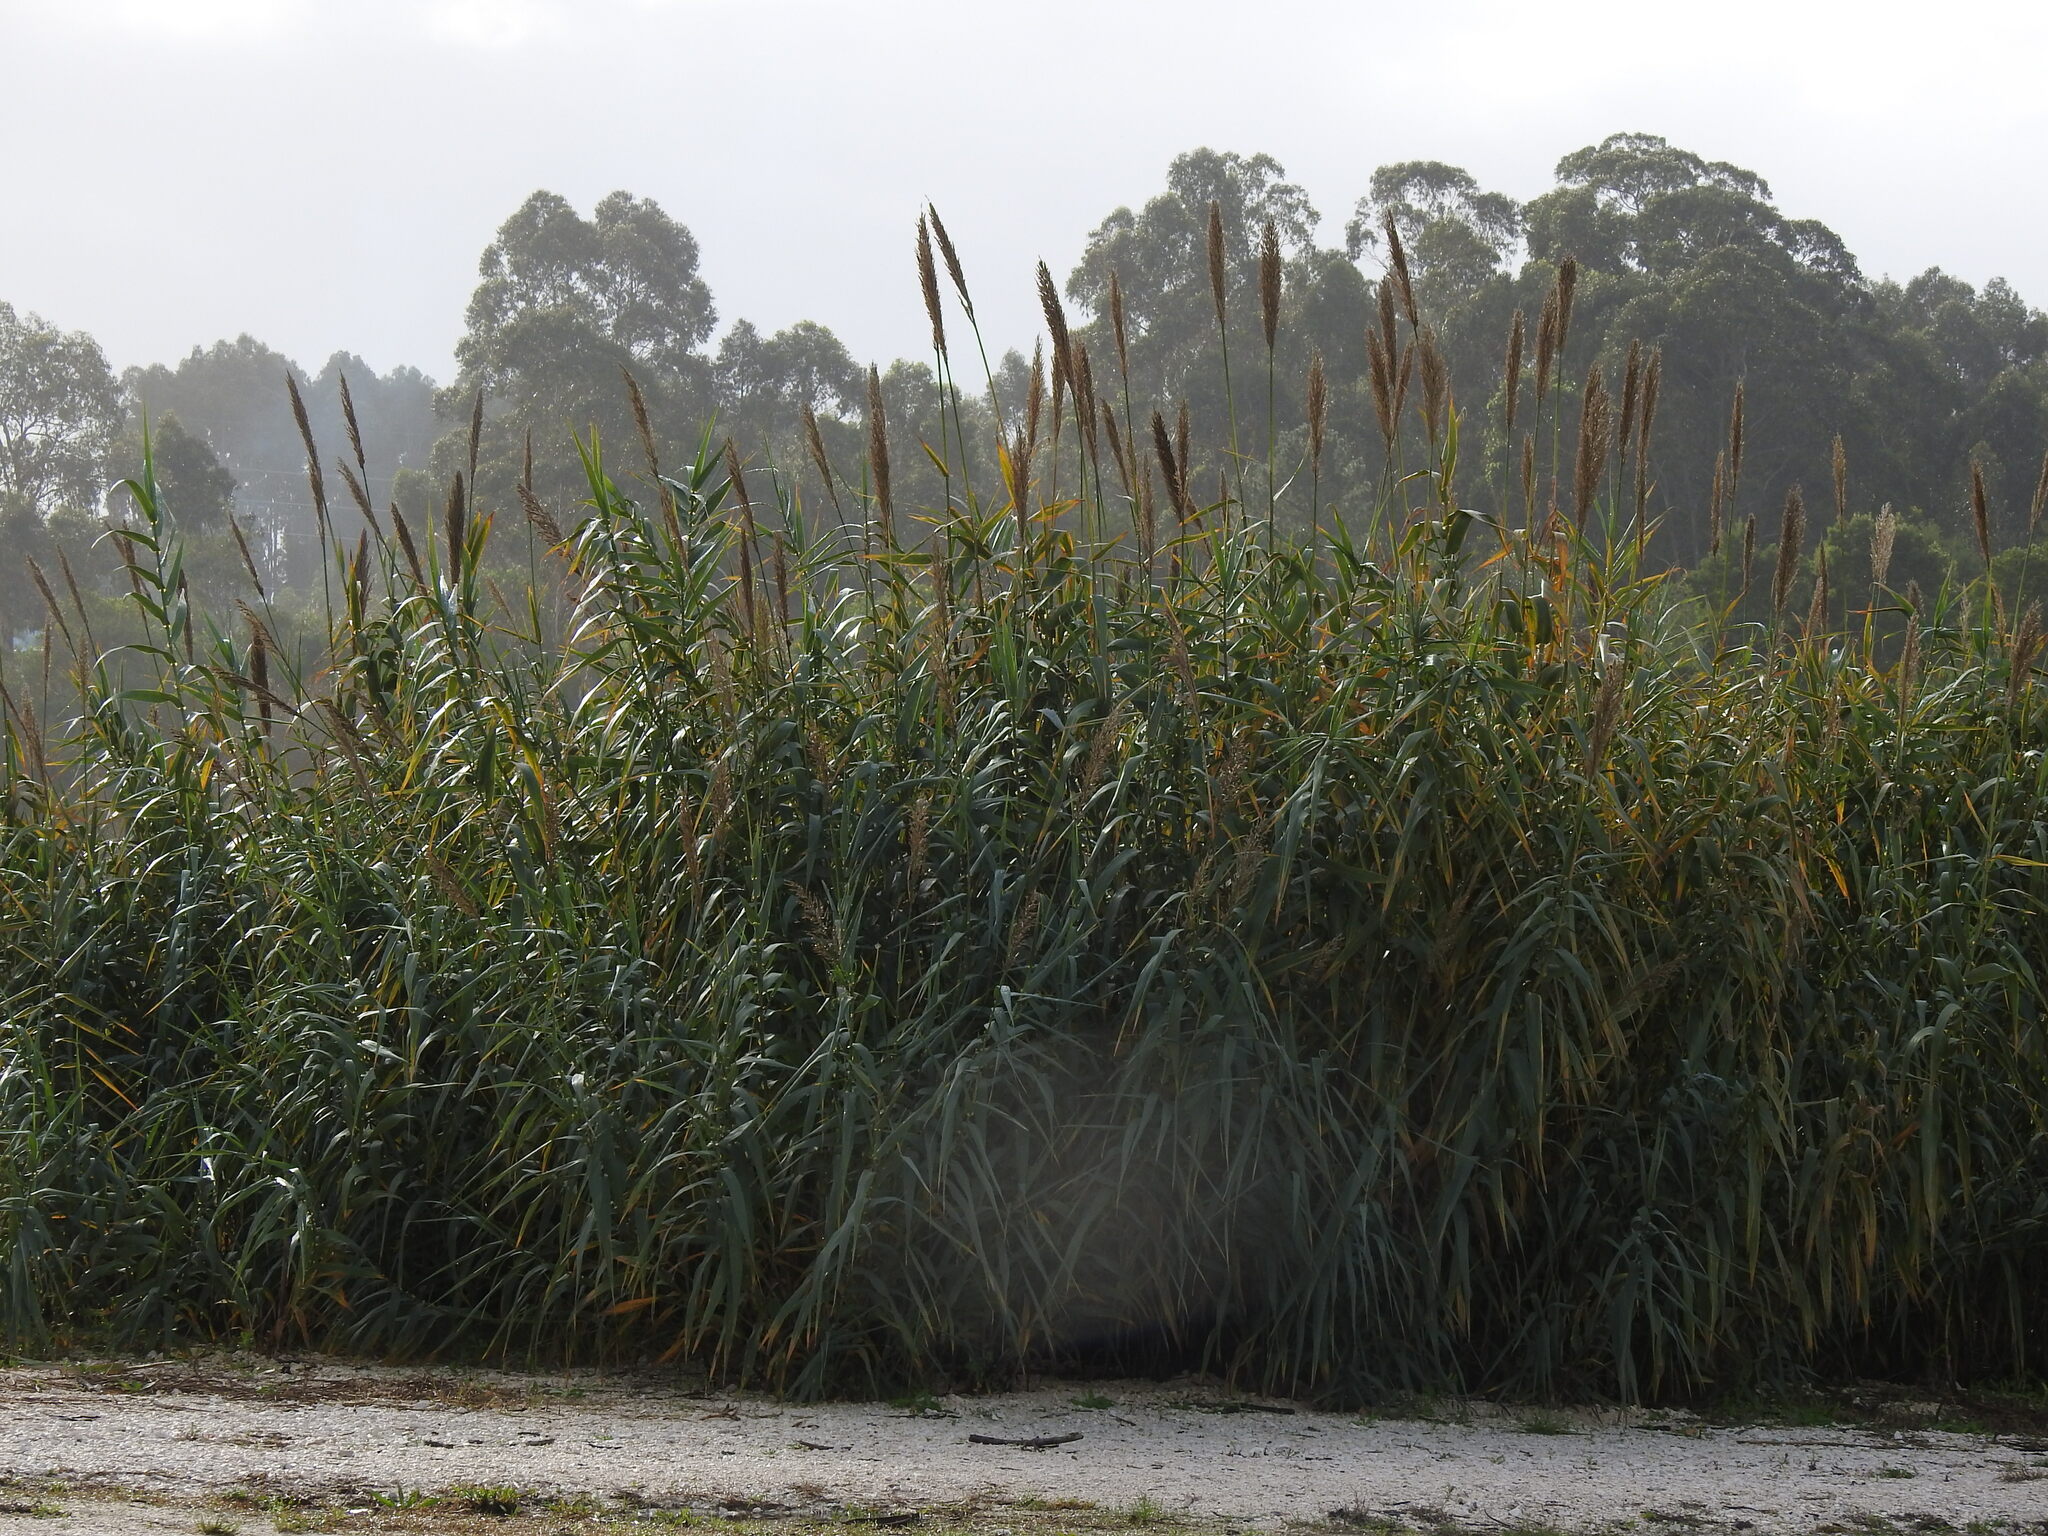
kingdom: Plantae
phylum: Tracheophyta
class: Liliopsida
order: Poales
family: Poaceae
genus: Arundo
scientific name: Arundo donax
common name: Giant reed
